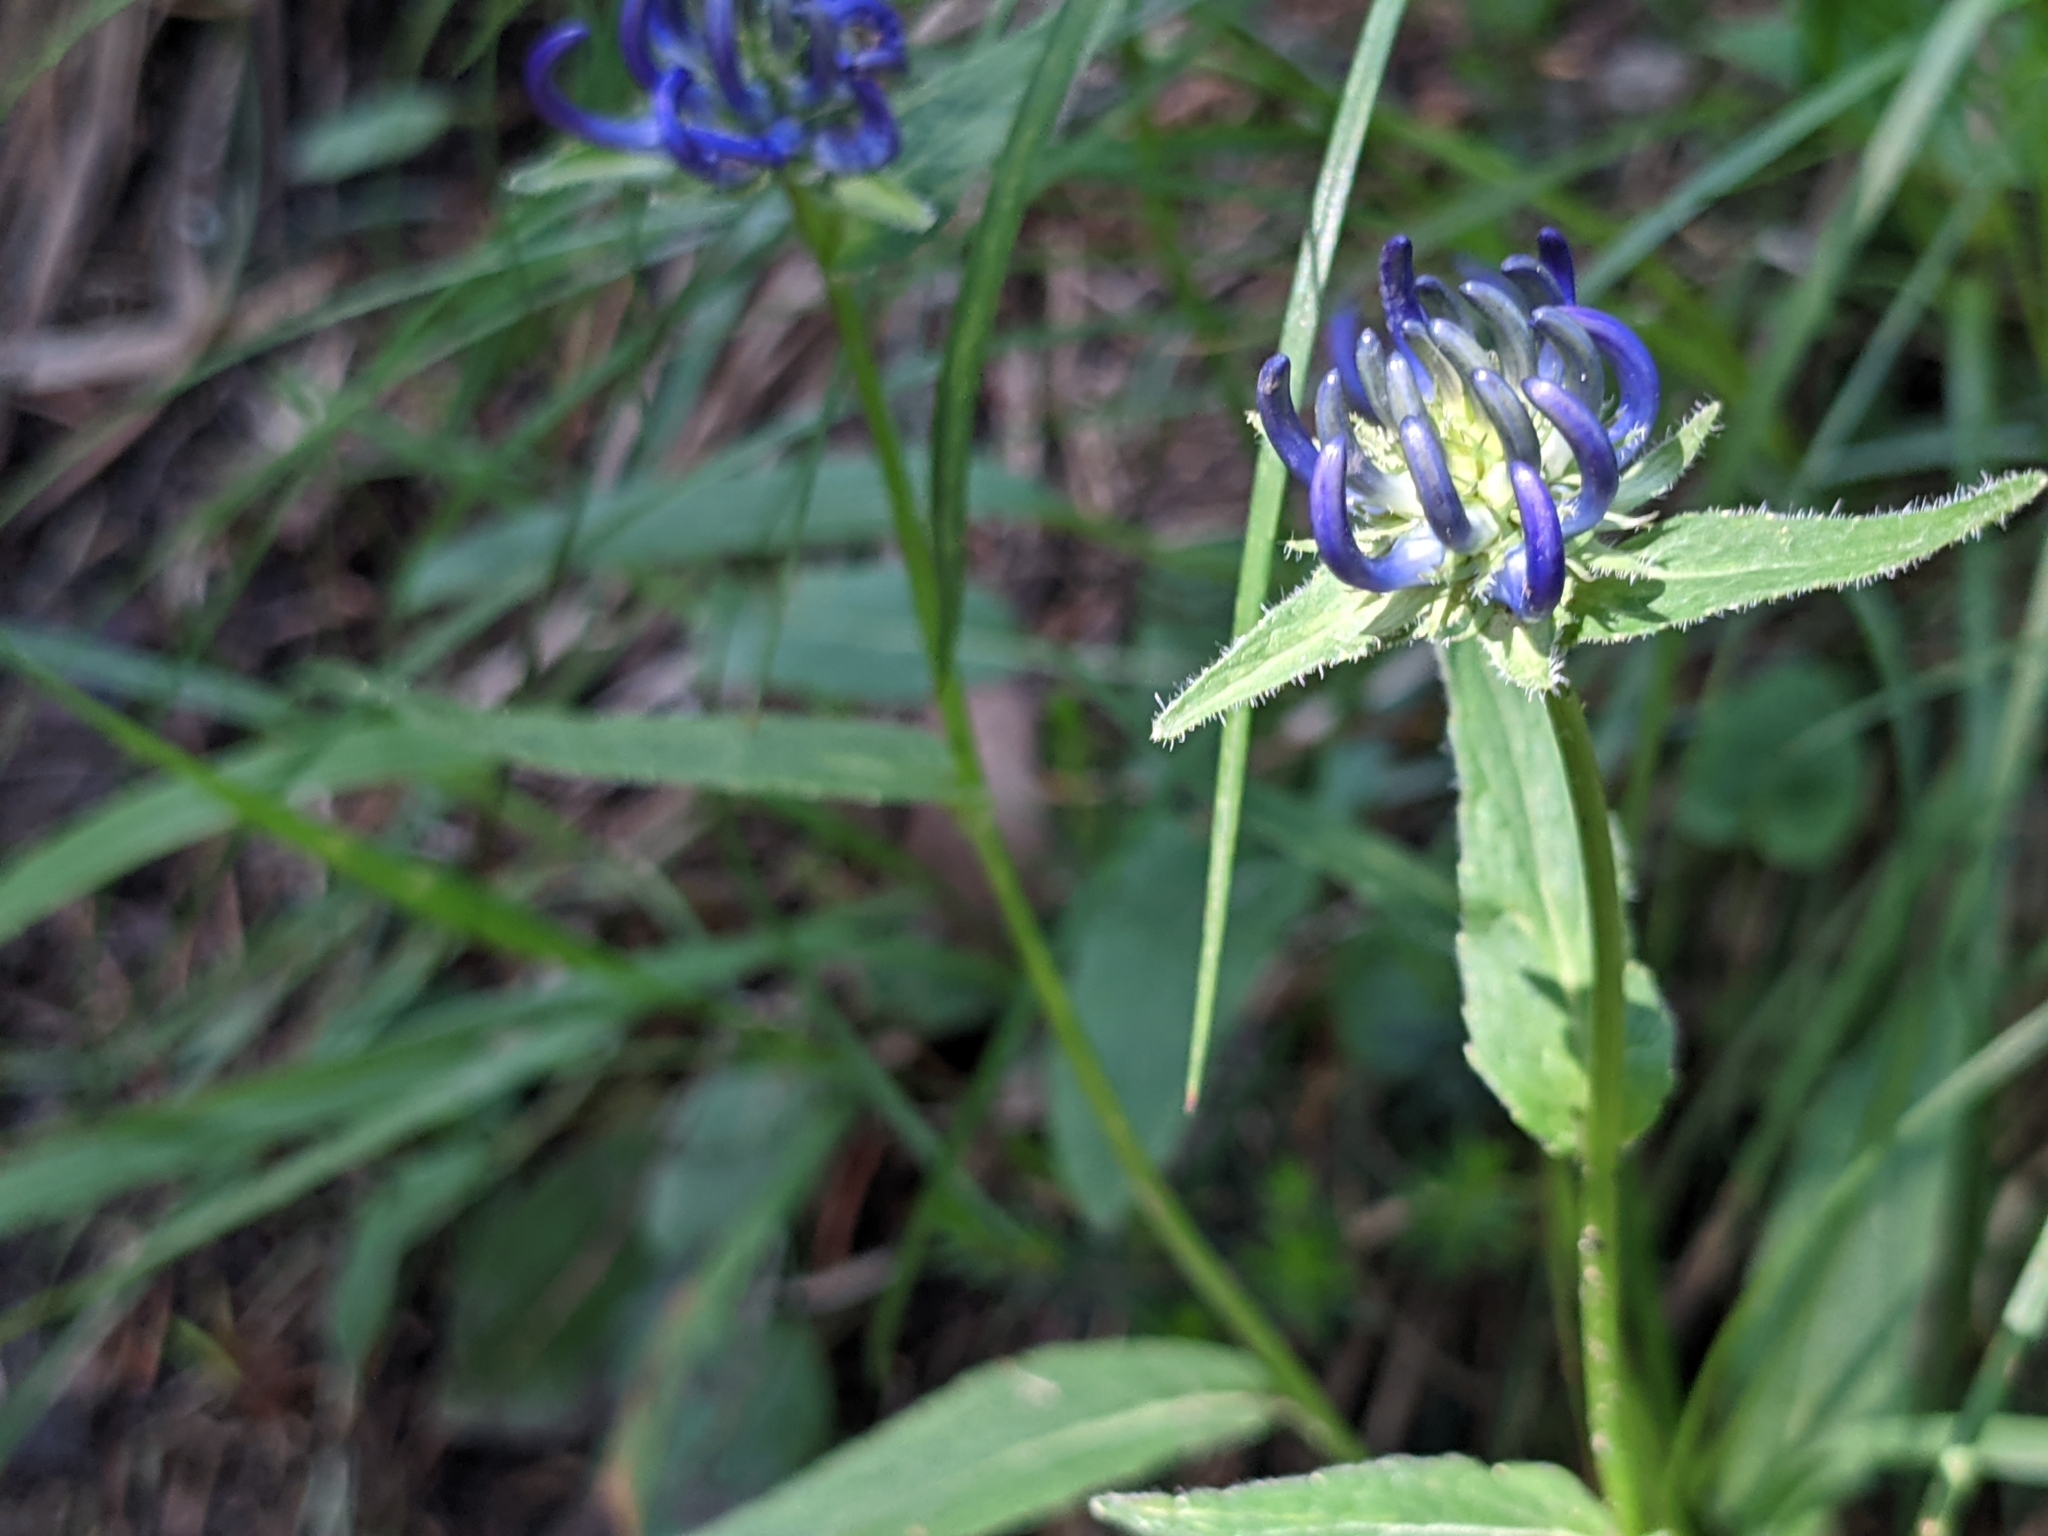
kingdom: Plantae
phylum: Tracheophyta
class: Magnoliopsida
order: Asterales
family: Campanulaceae
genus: Phyteuma
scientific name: Phyteuma orbiculare
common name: Round-headed rampion
